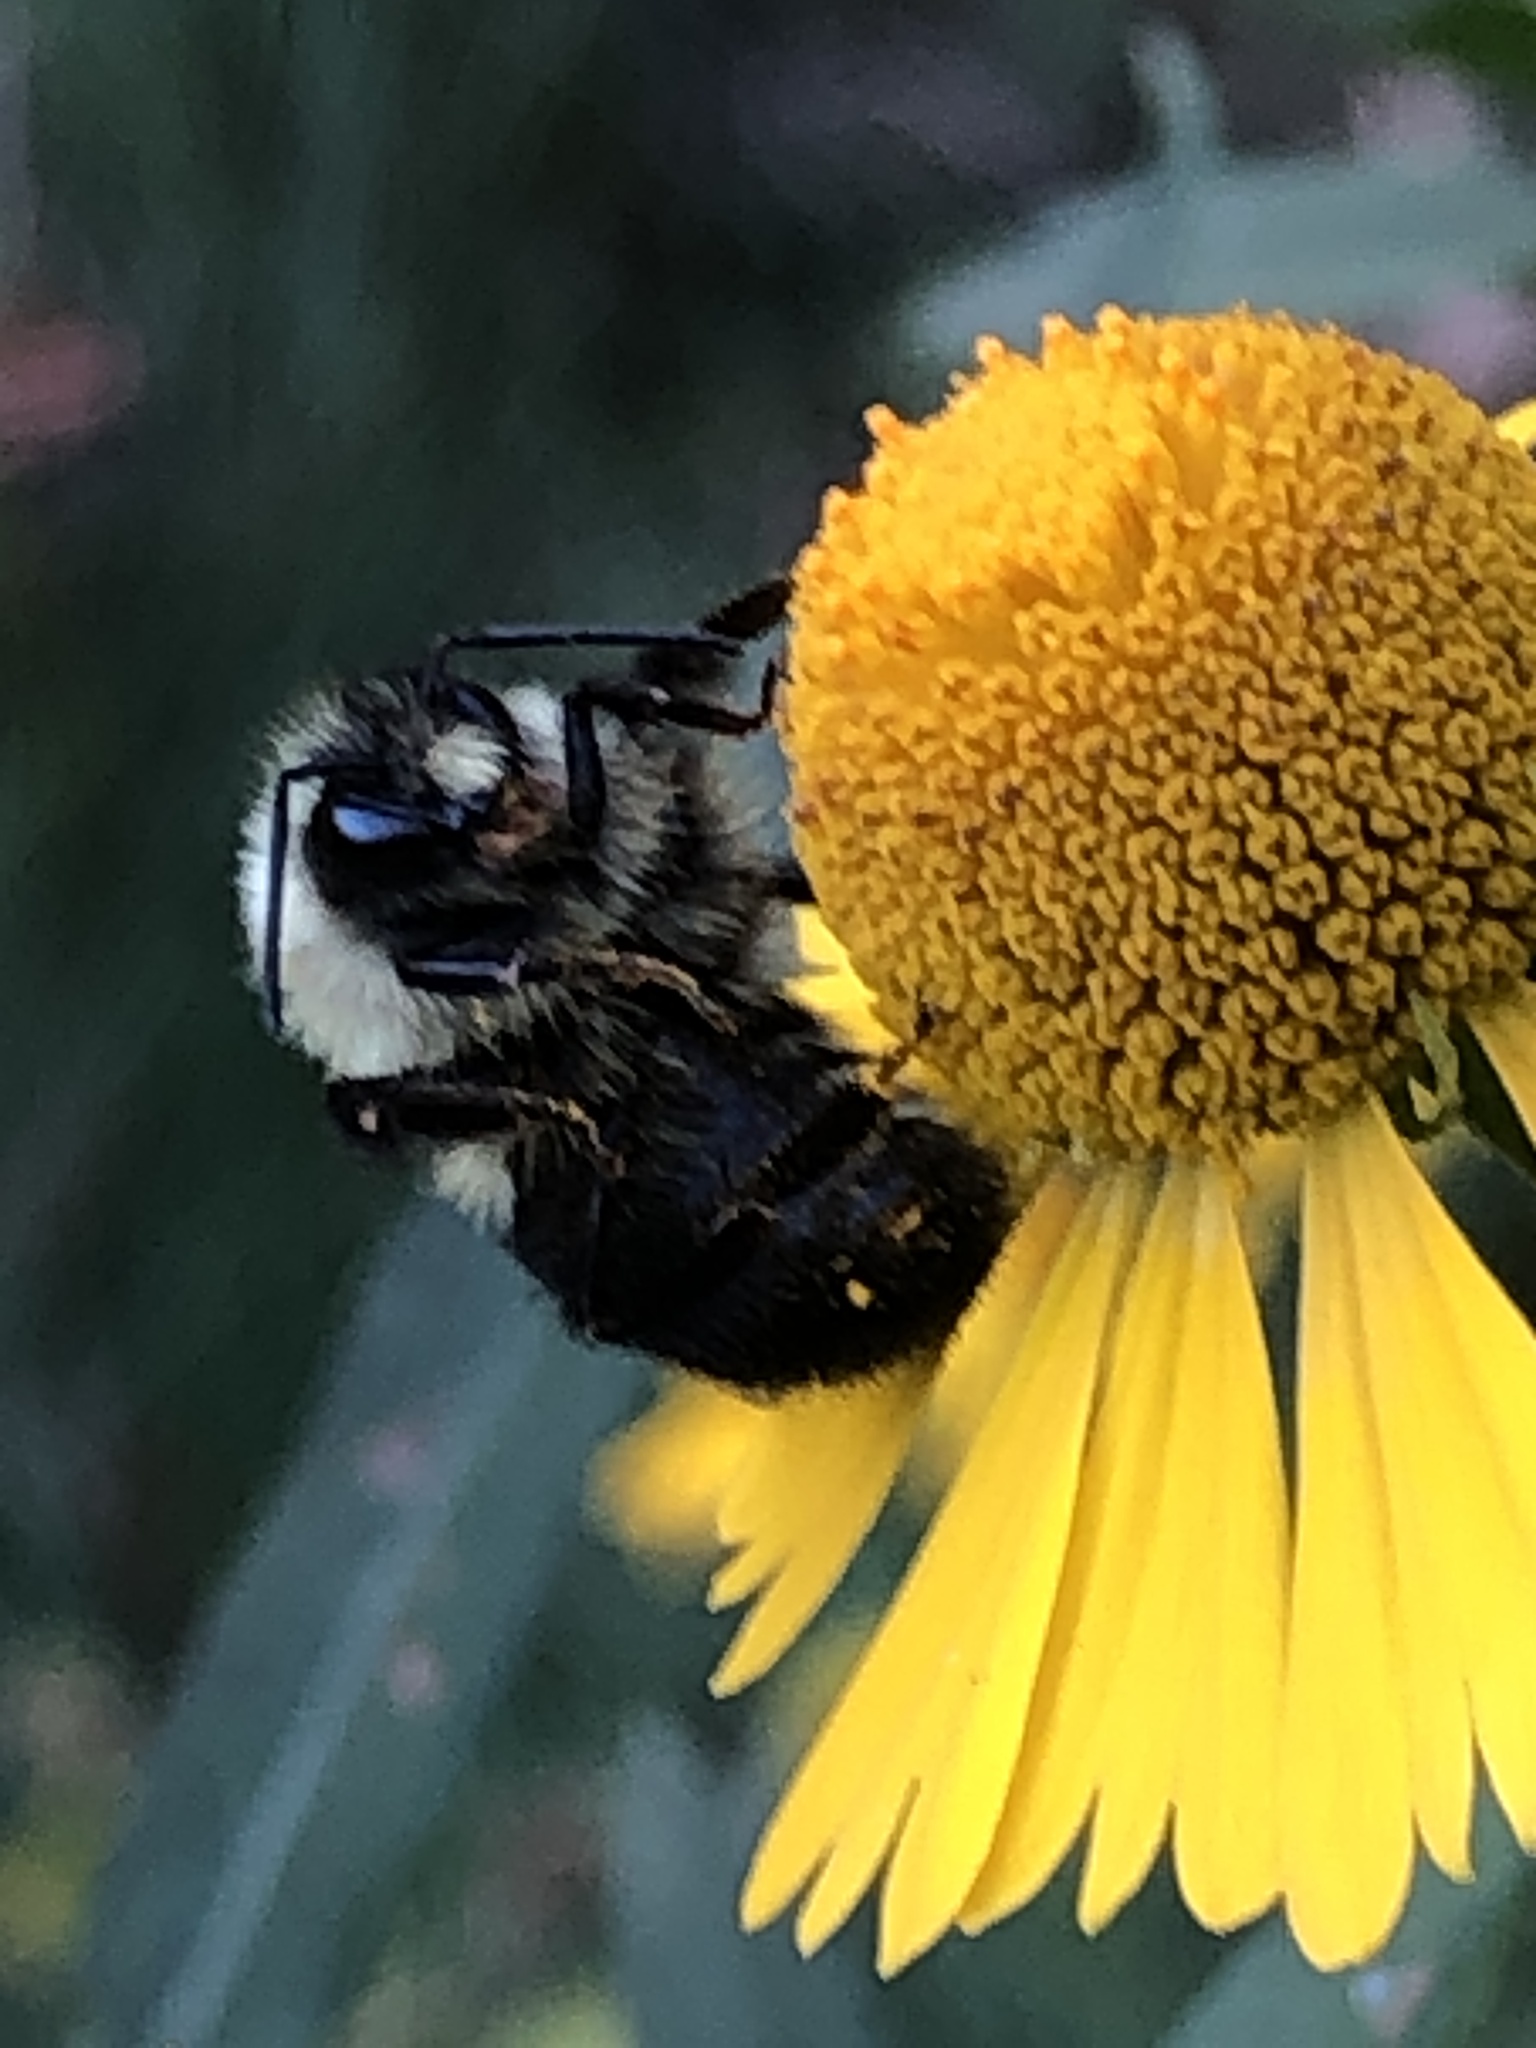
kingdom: Plantae
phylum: Tracheophyta
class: Magnoliopsida
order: Asterales
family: Asteraceae
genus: Helenium
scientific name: Helenium autumnale
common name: Sneezeweed
